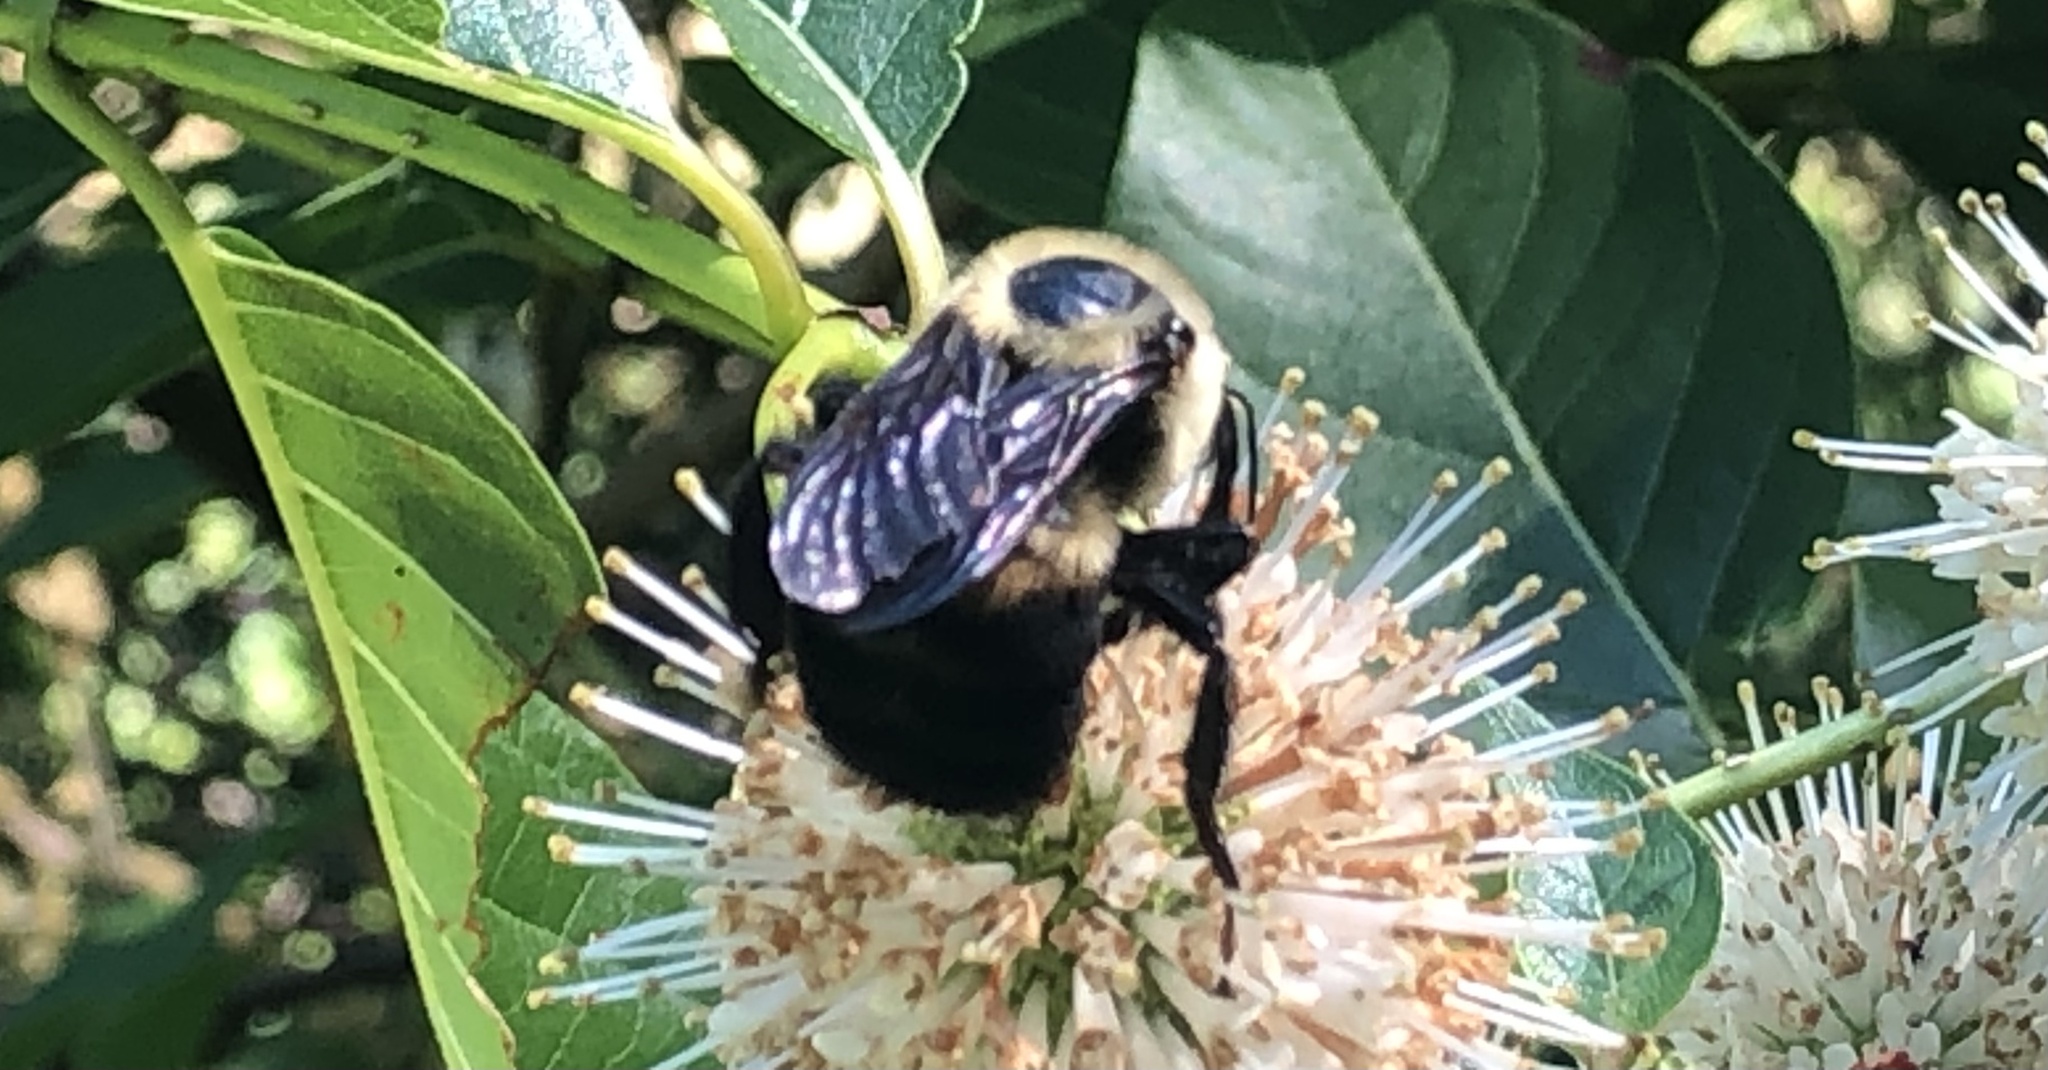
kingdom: Animalia
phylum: Arthropoda
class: Insecta
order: Hymenoptera
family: Apidae
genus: Bombus
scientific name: Bombus
